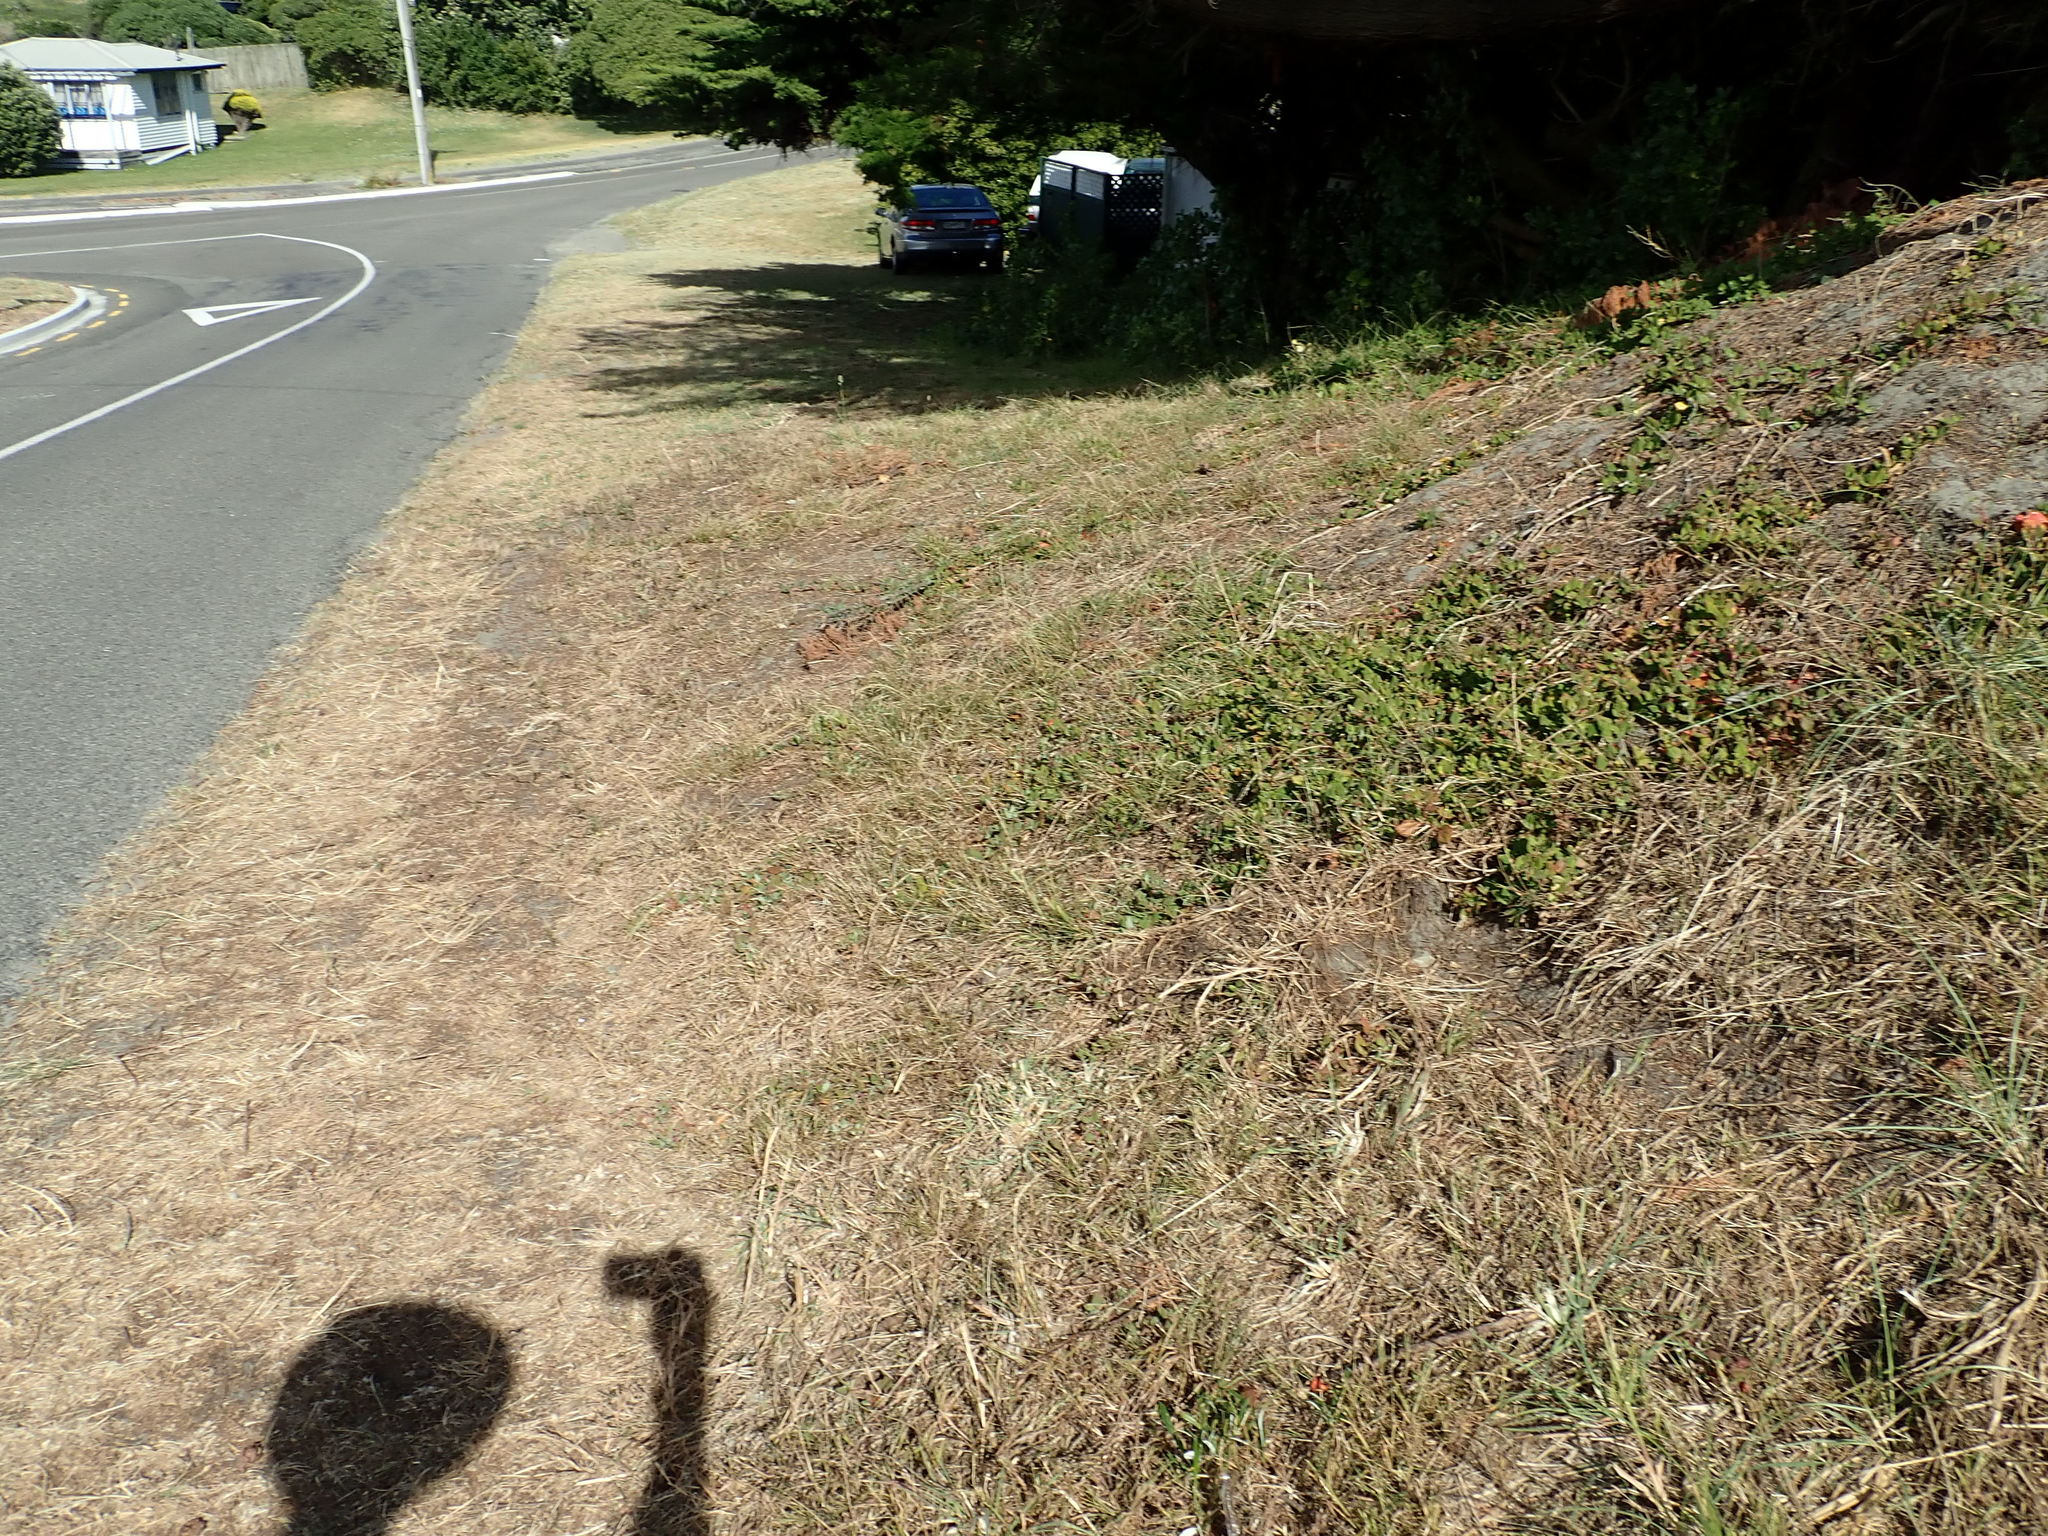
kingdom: Plantae
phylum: Tracheophyta
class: Magnoliopsida
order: Caryophyllales
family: Aizoaceae
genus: Tetragonia
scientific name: Tetragonia implexicoma
